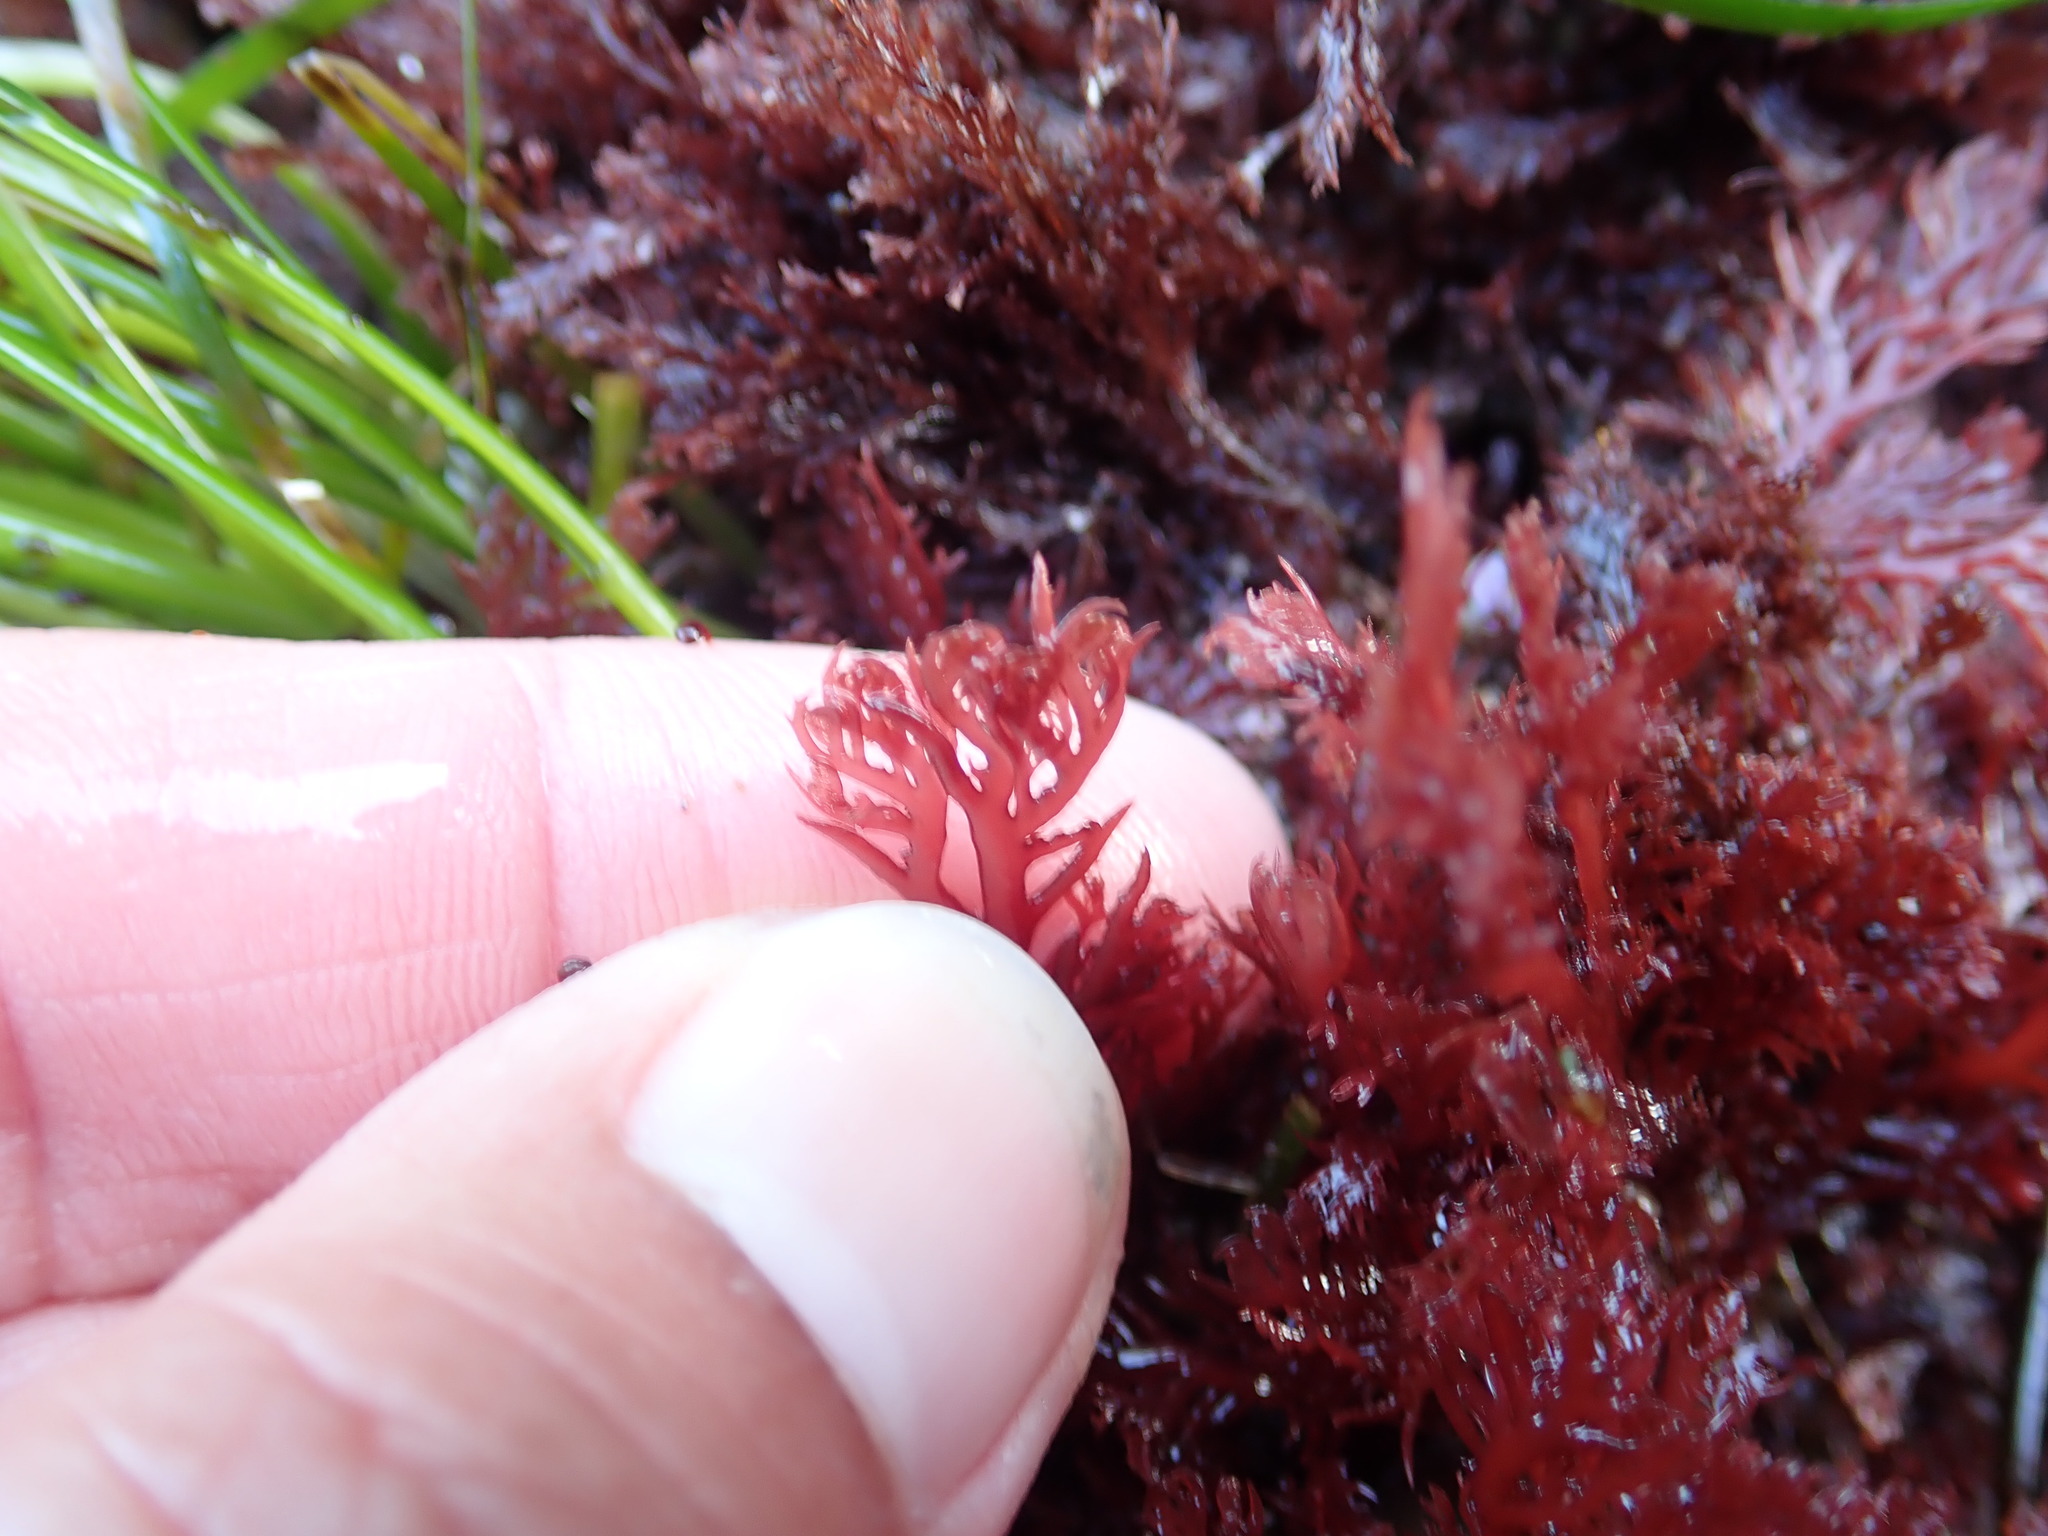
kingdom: Plantae
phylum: Rhodophyta
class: Florideophyceae
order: Plocamiales
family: Plocamiaceae
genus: Plocamium
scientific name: Plocamium cartilagineum
